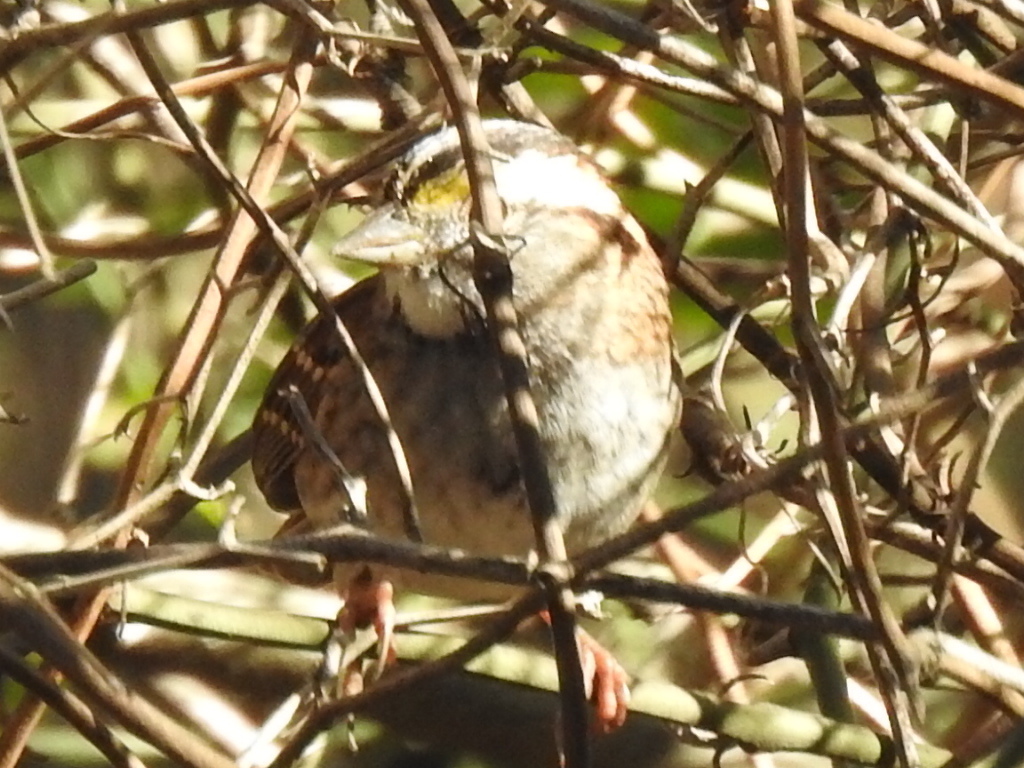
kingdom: Animalia
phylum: Chordata
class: Aves
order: Passeriformes
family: Passerellidae
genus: Zonotrichia
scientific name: Zonotrichia albicollis
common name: White-throated sparrow
